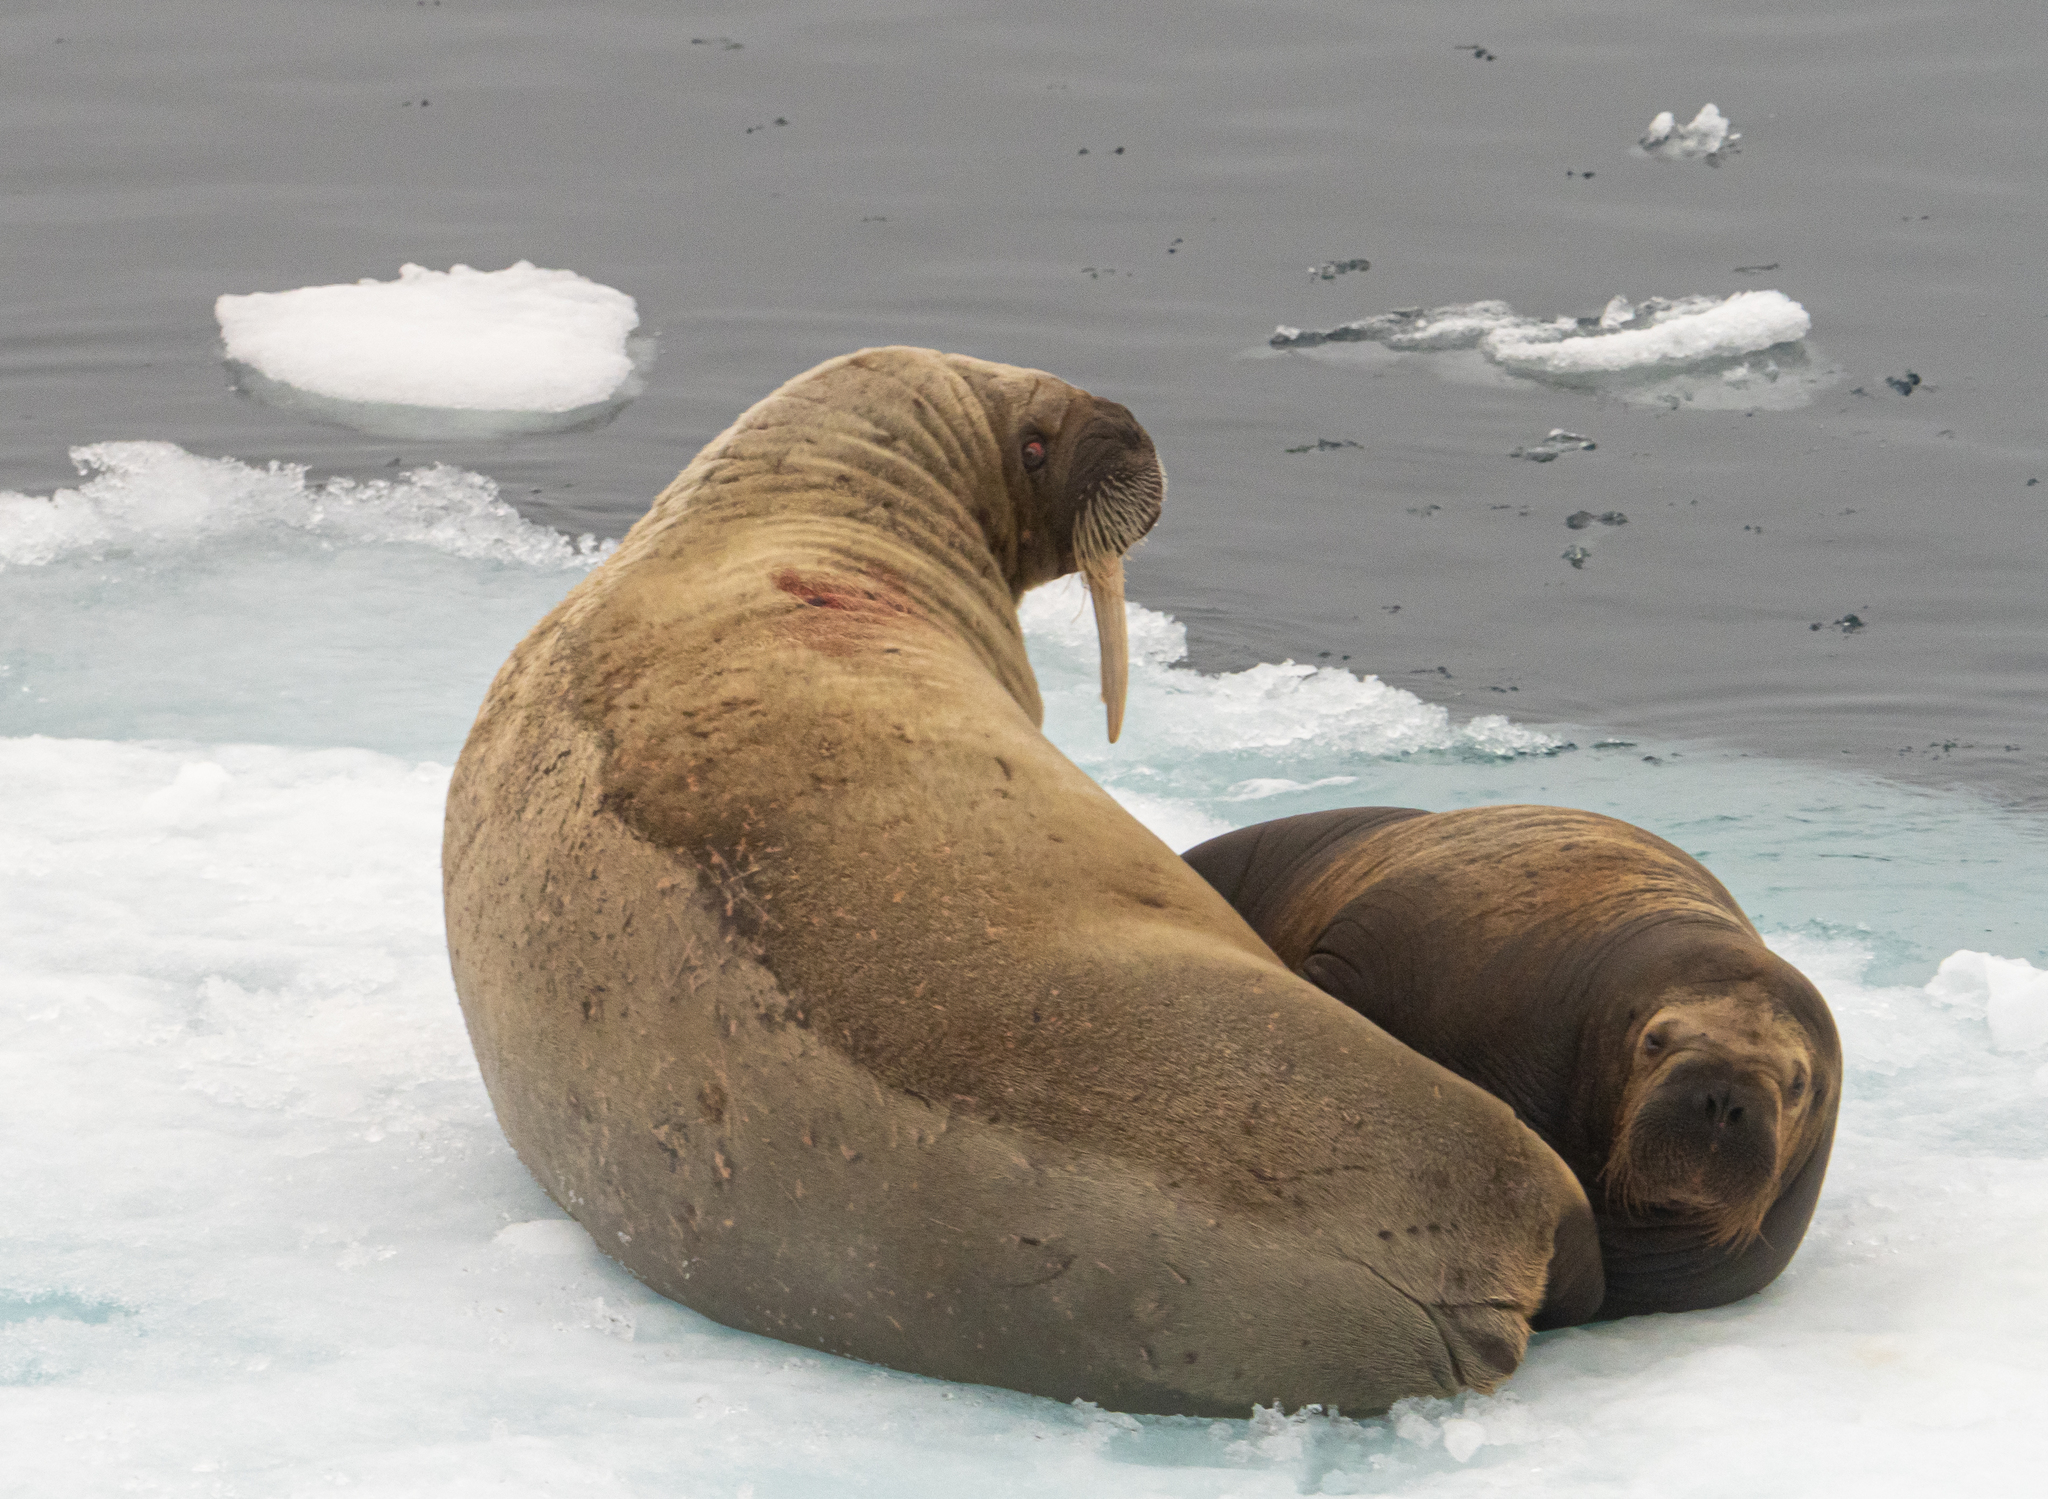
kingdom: Animalia
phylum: Chordata
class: Mammalia
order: Carnivora
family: Odobenidae
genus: Odobenus
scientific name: Odobenus rosmarus
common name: Walrus
